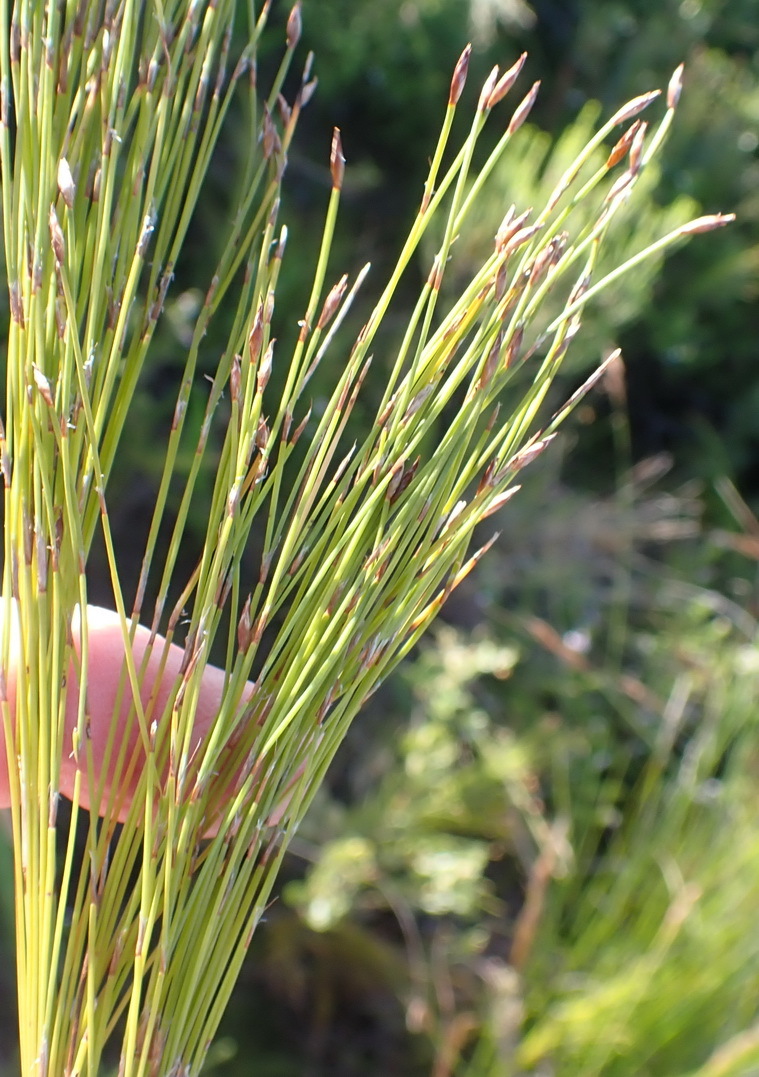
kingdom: Plantae
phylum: Tracheophyta
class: Liliopsida
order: Poales
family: Restionaceae
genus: Restio
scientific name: Restio leptoclados
